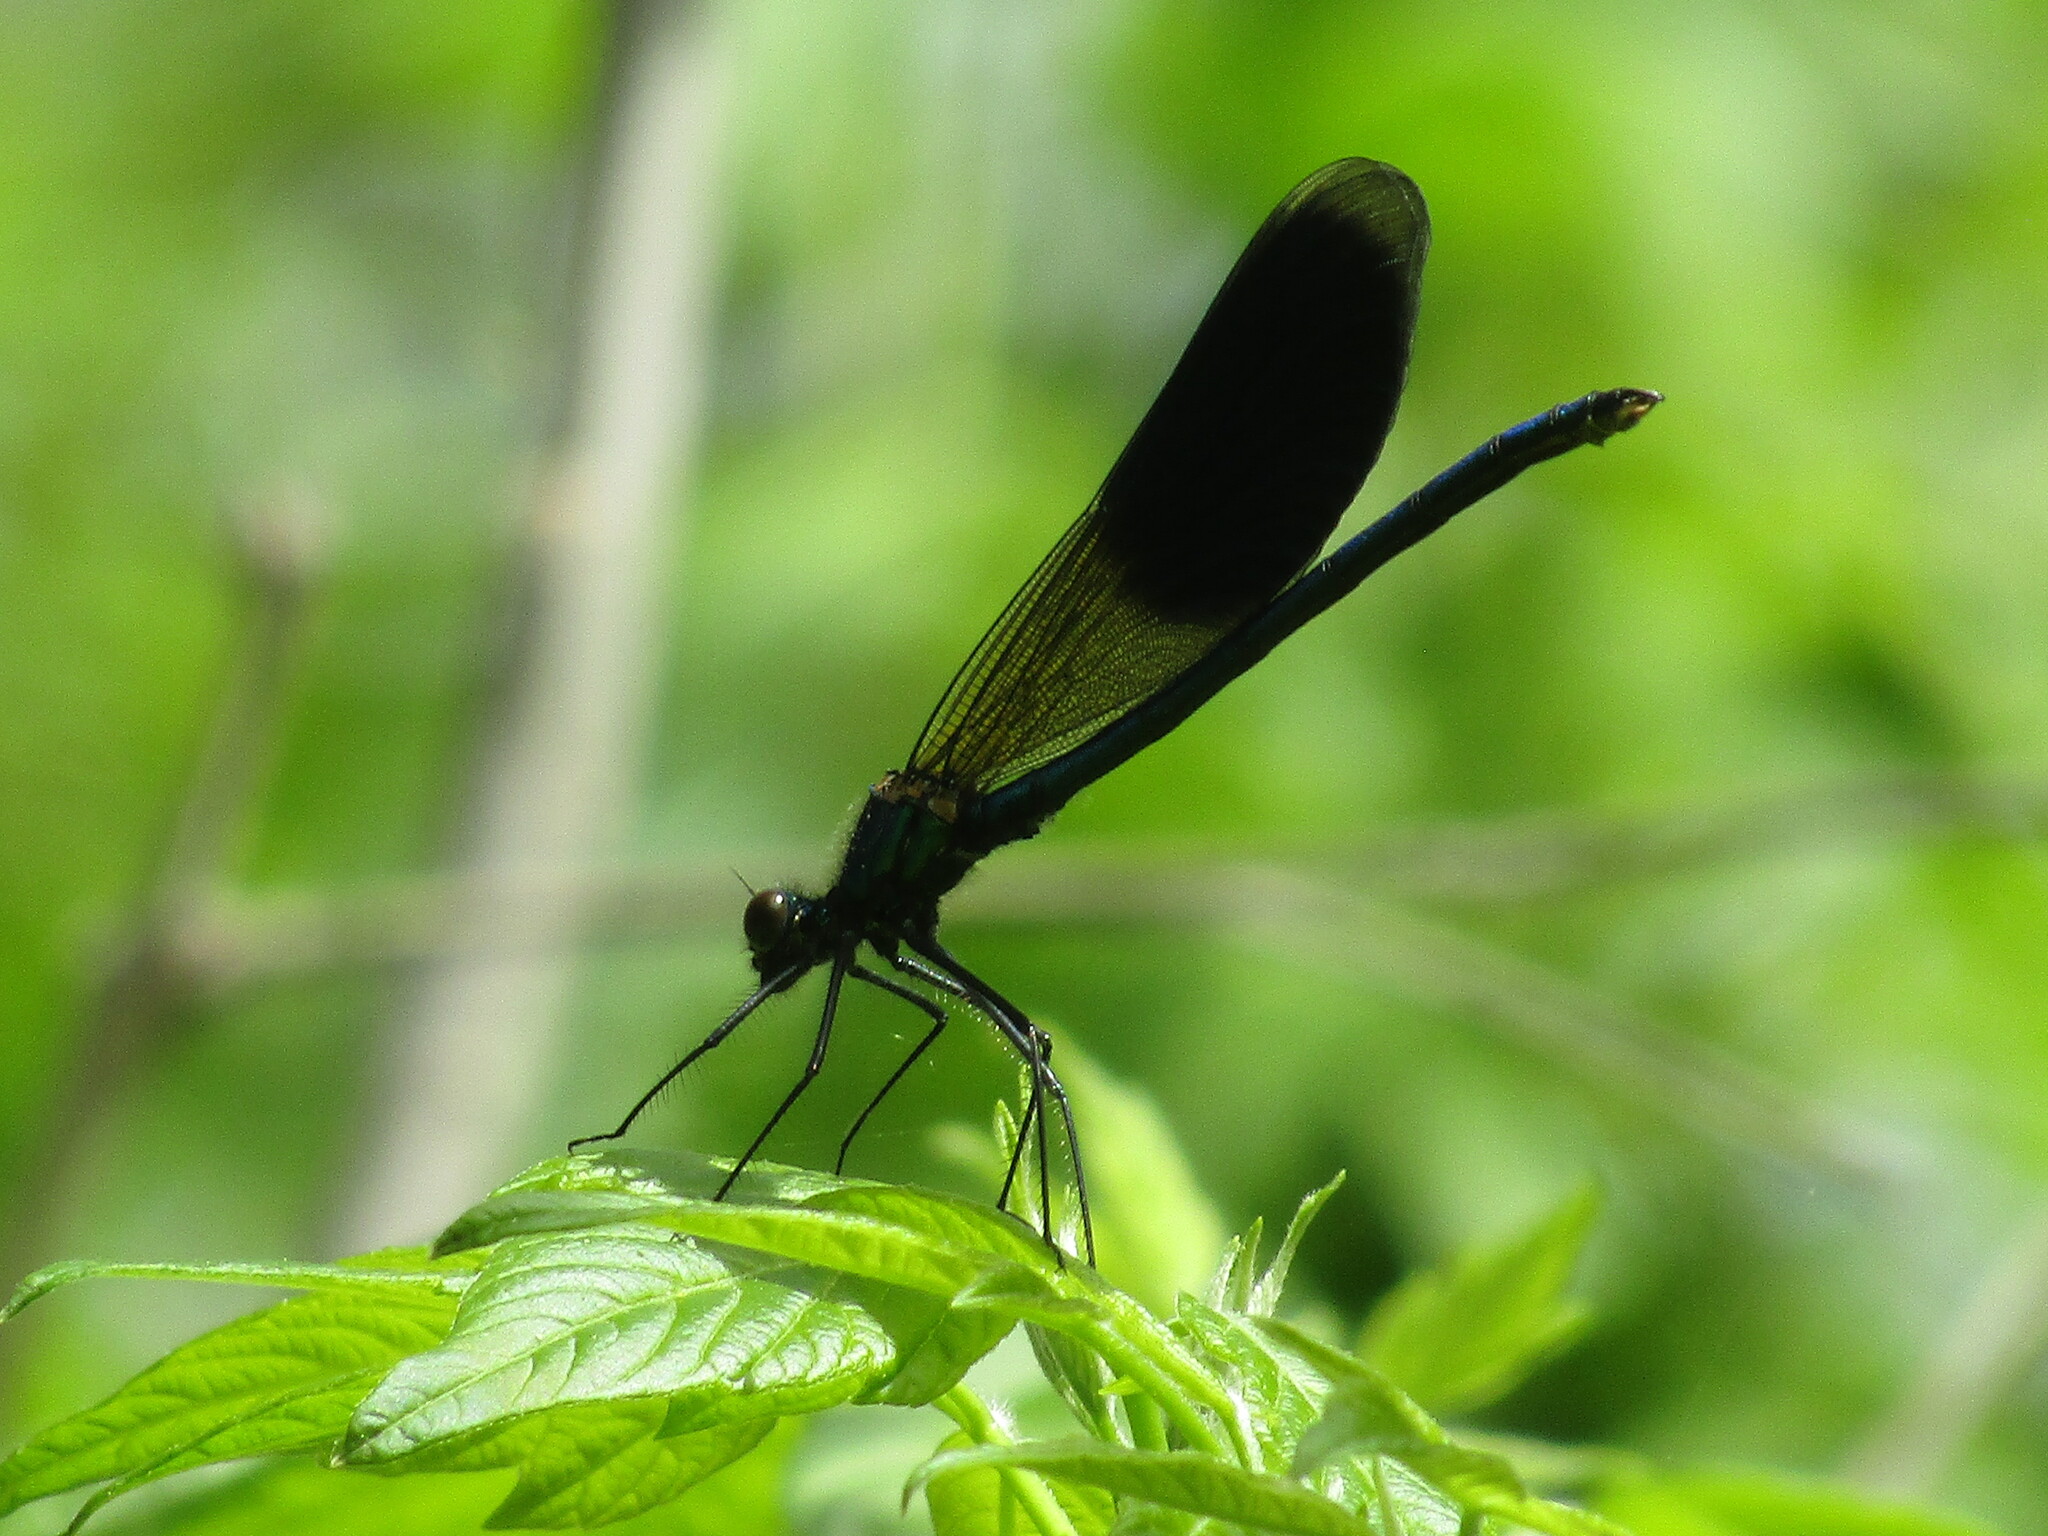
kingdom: Animalia
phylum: Arthropoda
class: Insecta
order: Odonata
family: Calopterygidae
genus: Calopteryx
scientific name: Calopteryx splendens
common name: Banded demoiselle
